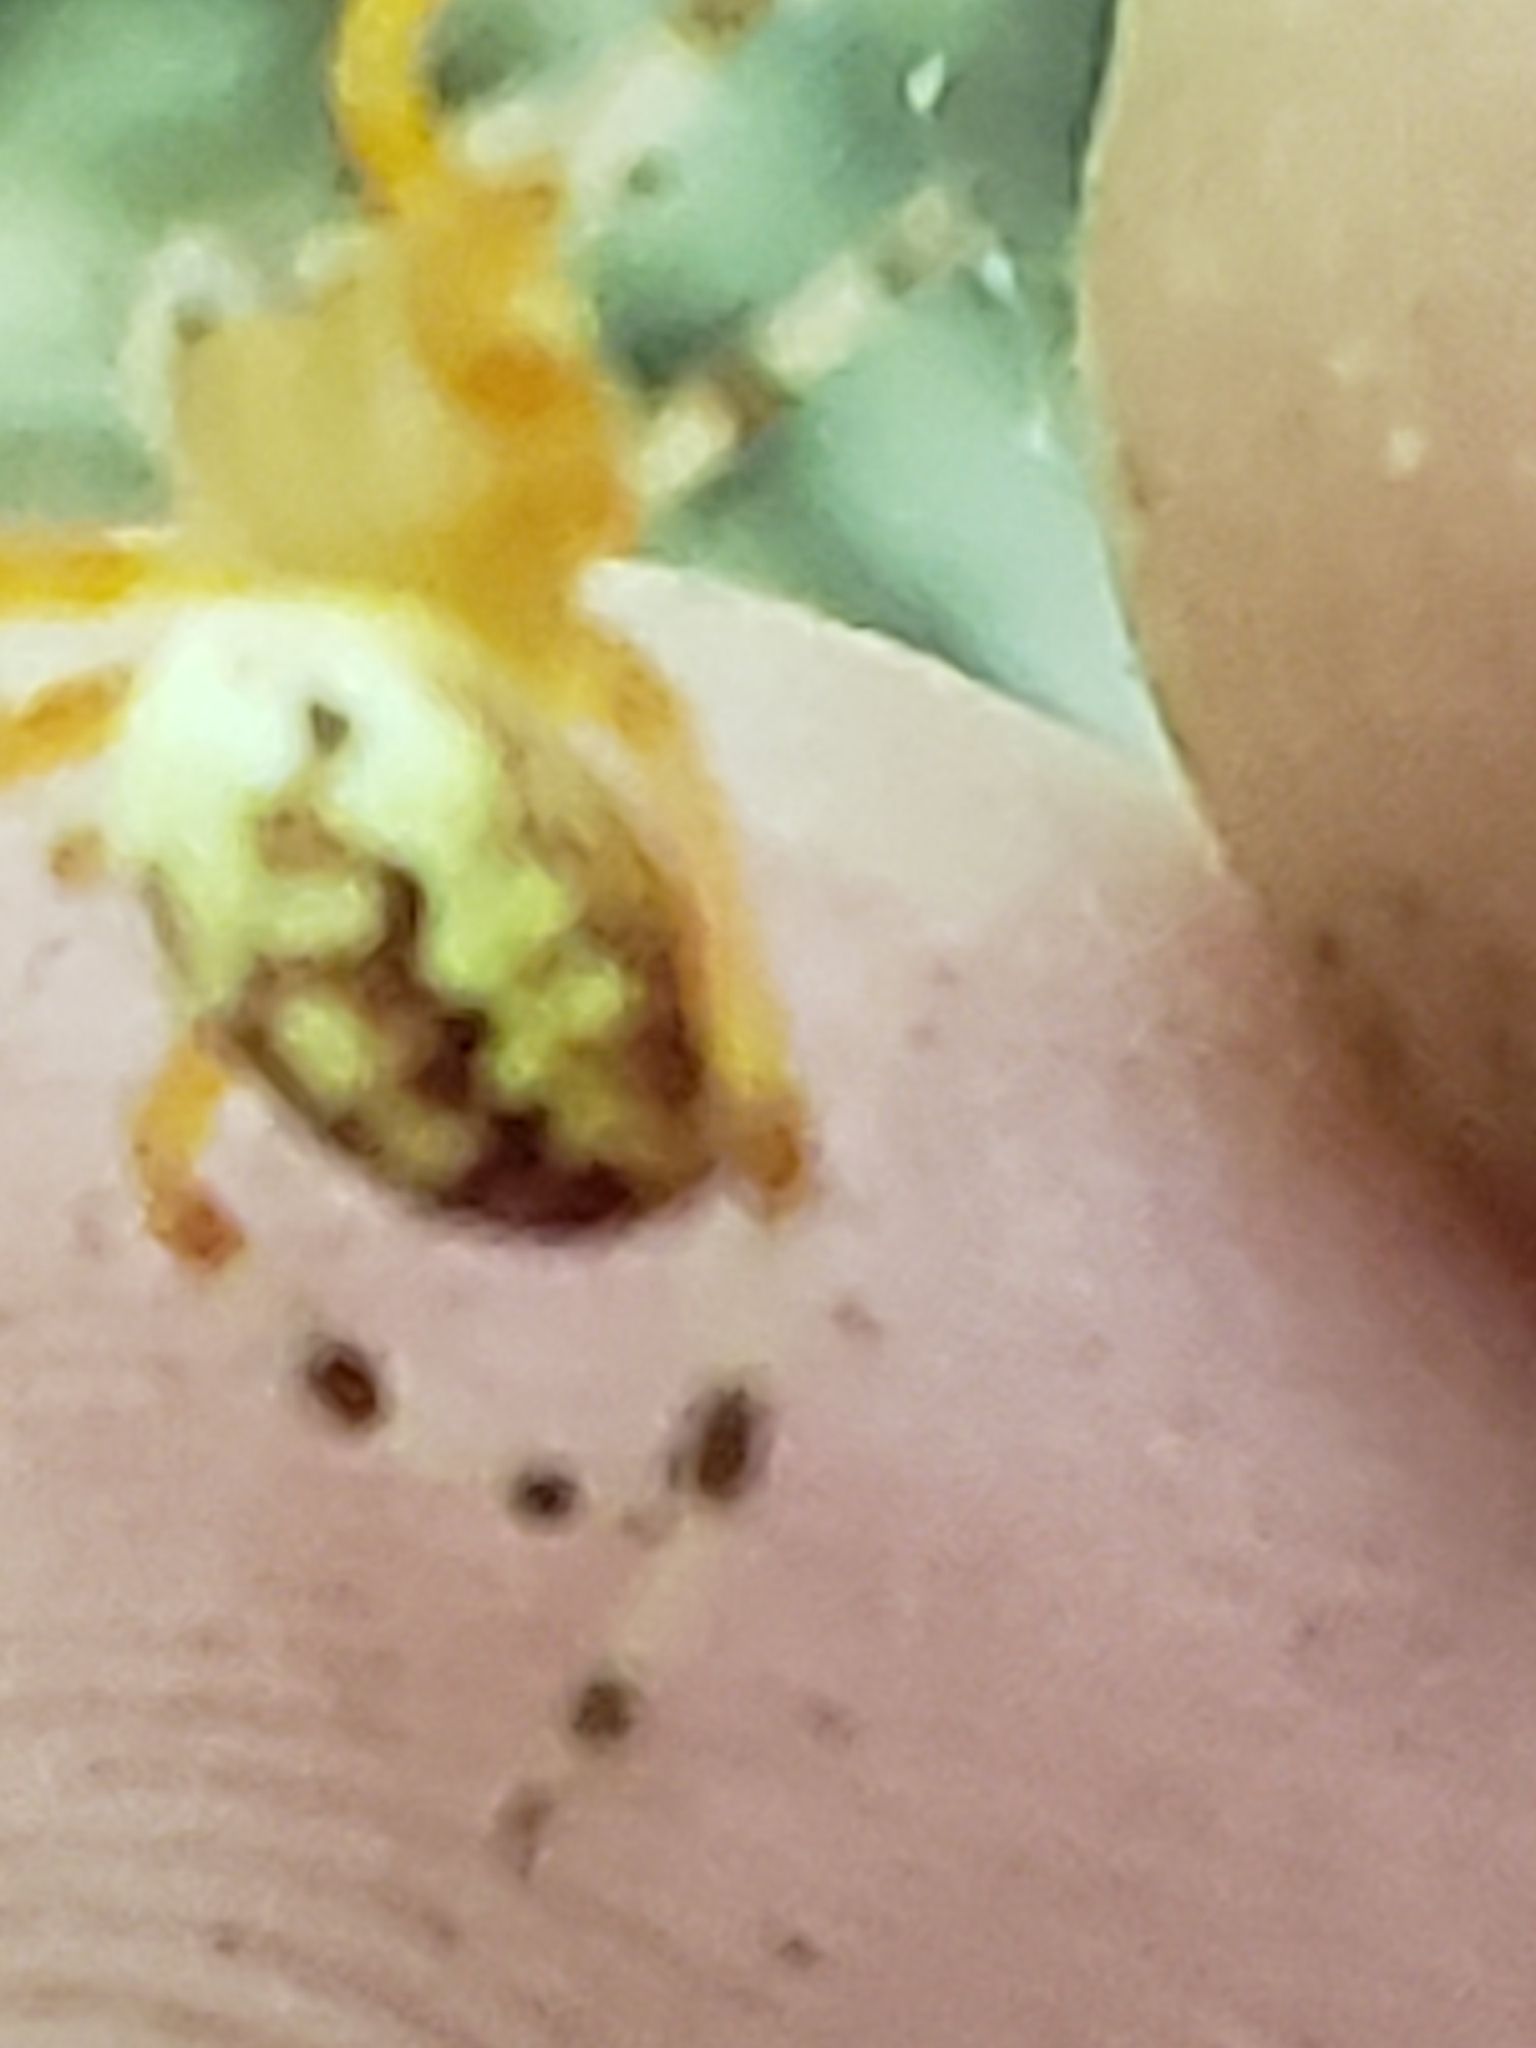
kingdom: Animalia
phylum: Arthropoda
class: Arachnida
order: Araneae
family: Araneidae
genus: Araneus
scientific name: Araneus marmoreus
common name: Marbled orbweaver
